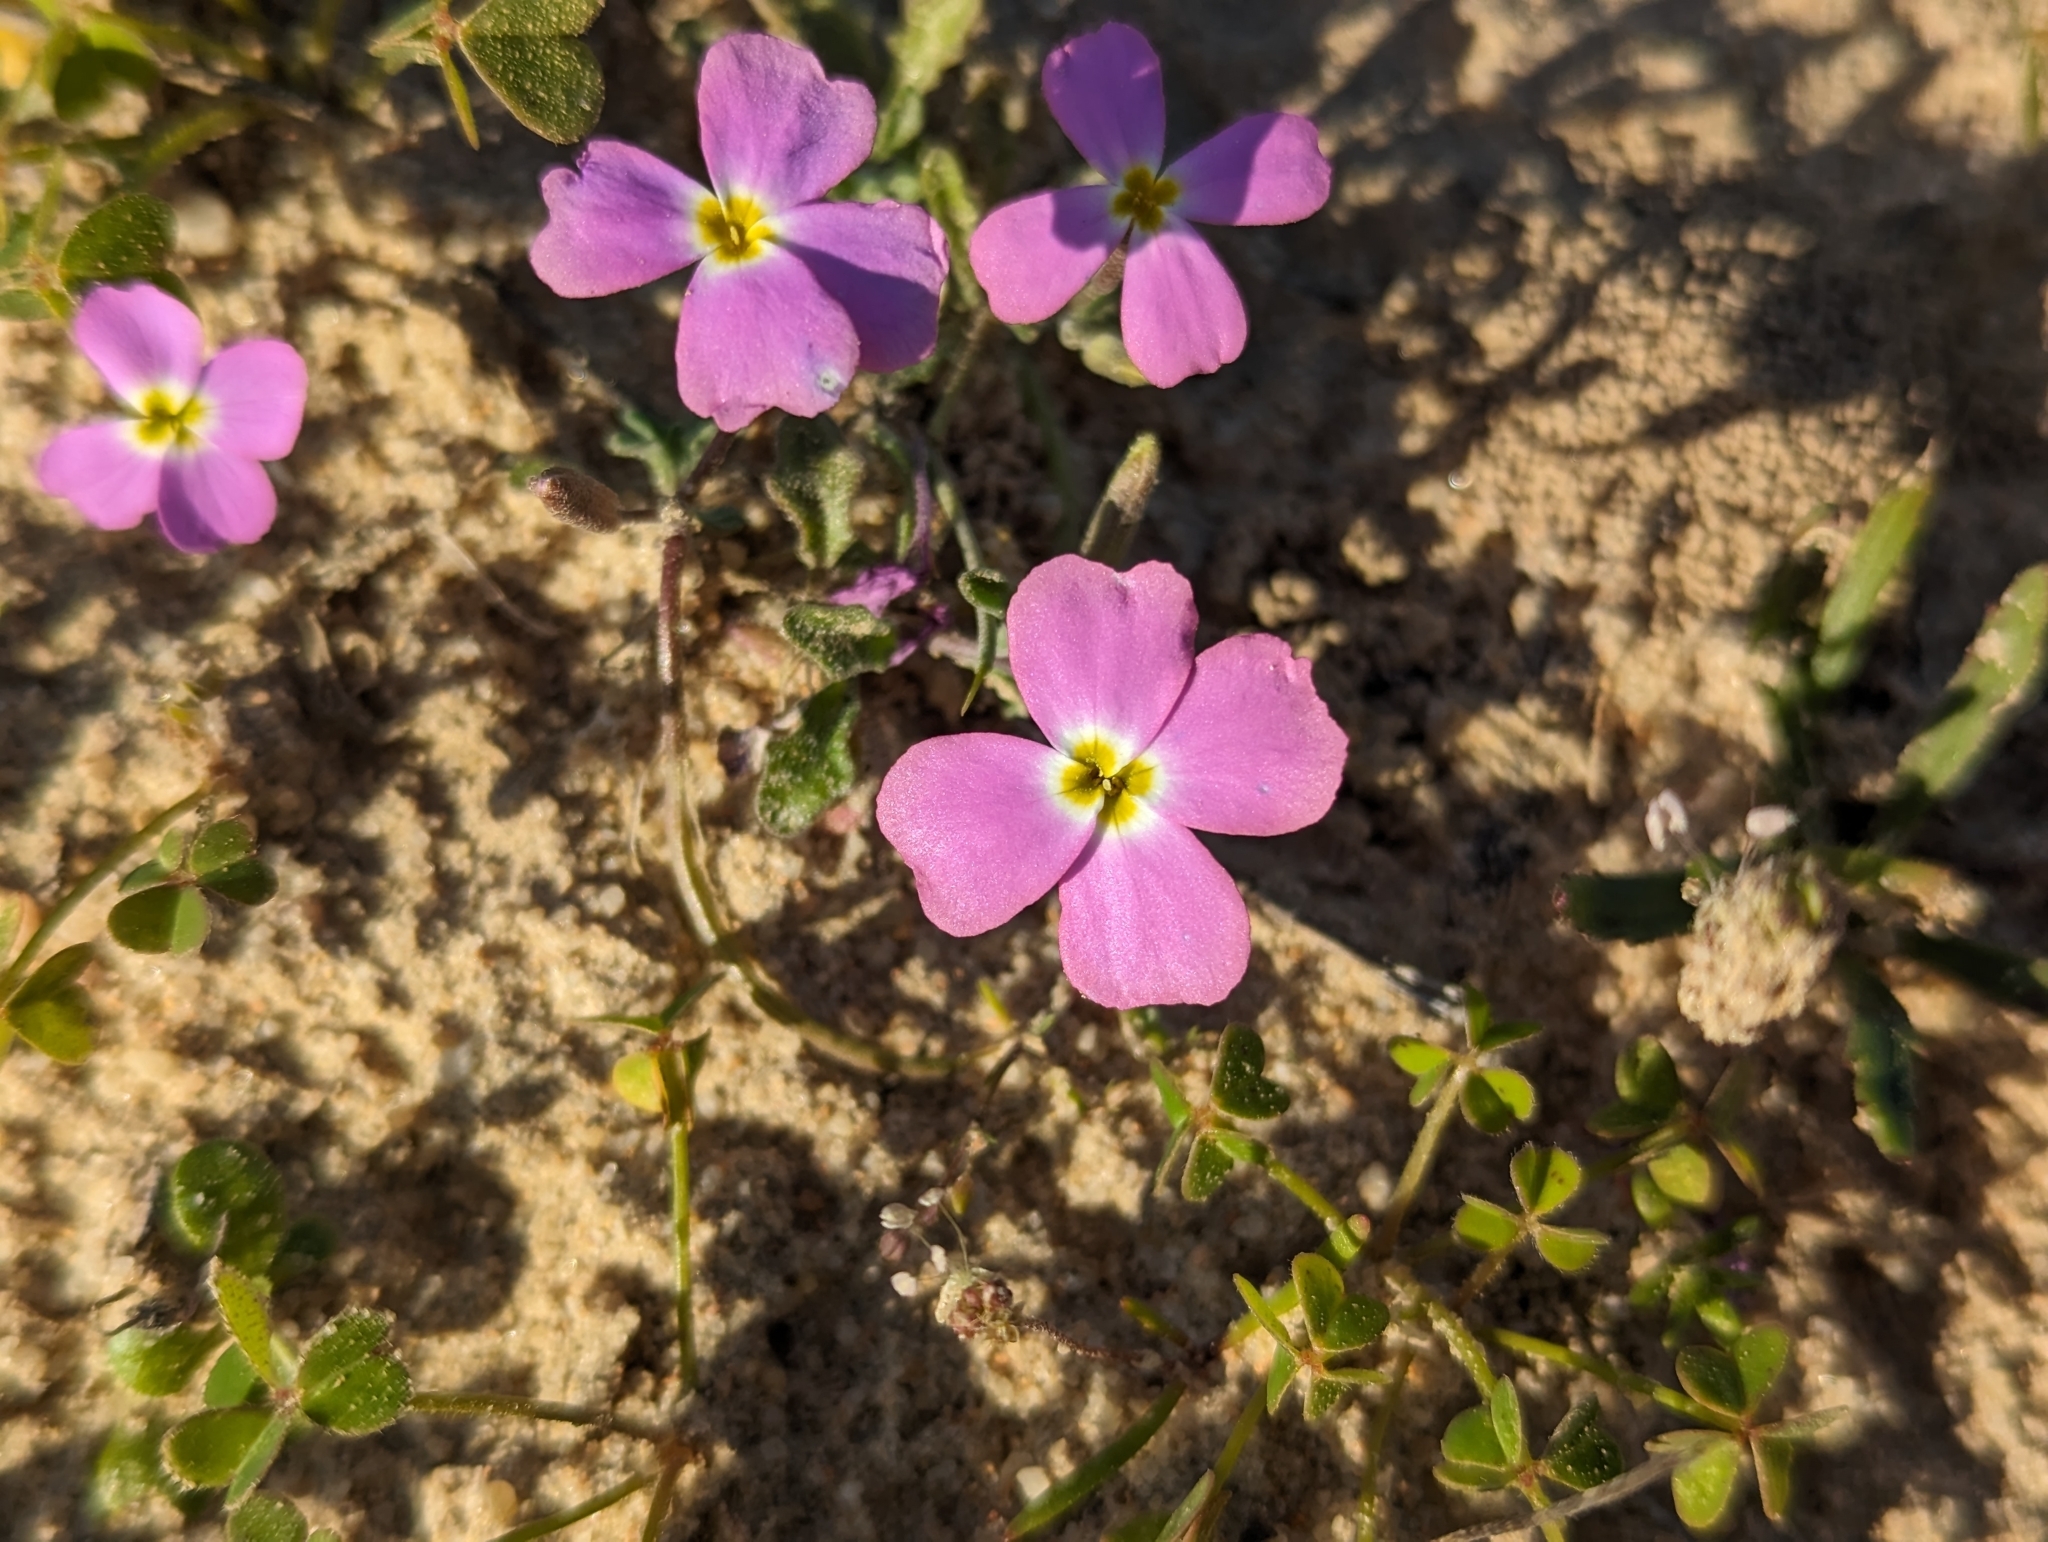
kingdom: Plantae
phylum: Tracheophyta
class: Magnoliopsida
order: Brassicales
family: Brassicaceae
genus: Marcuskochia
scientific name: Marcuskochia triloba
